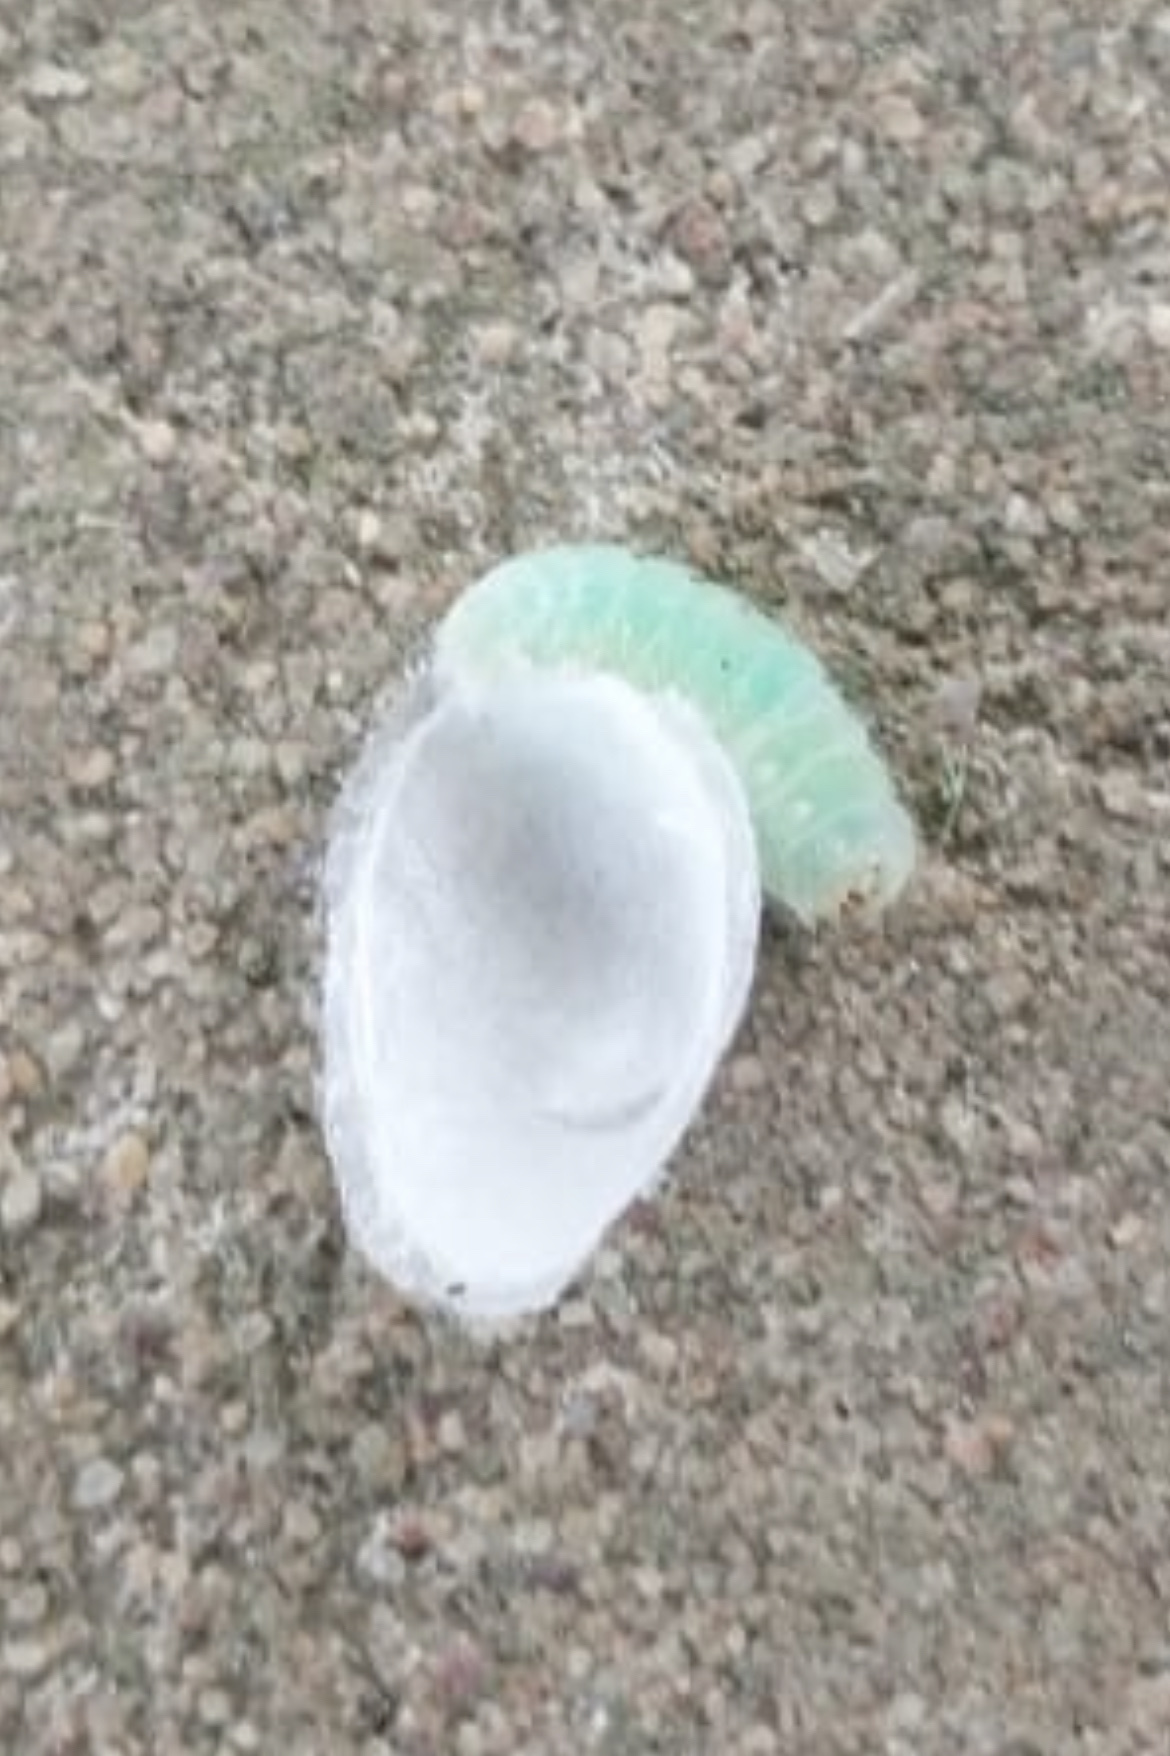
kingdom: Animalia
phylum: Arthropoda
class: Insecta
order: Lepidoptera
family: Zygaenidae
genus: Orna
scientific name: Orna nebulosa
